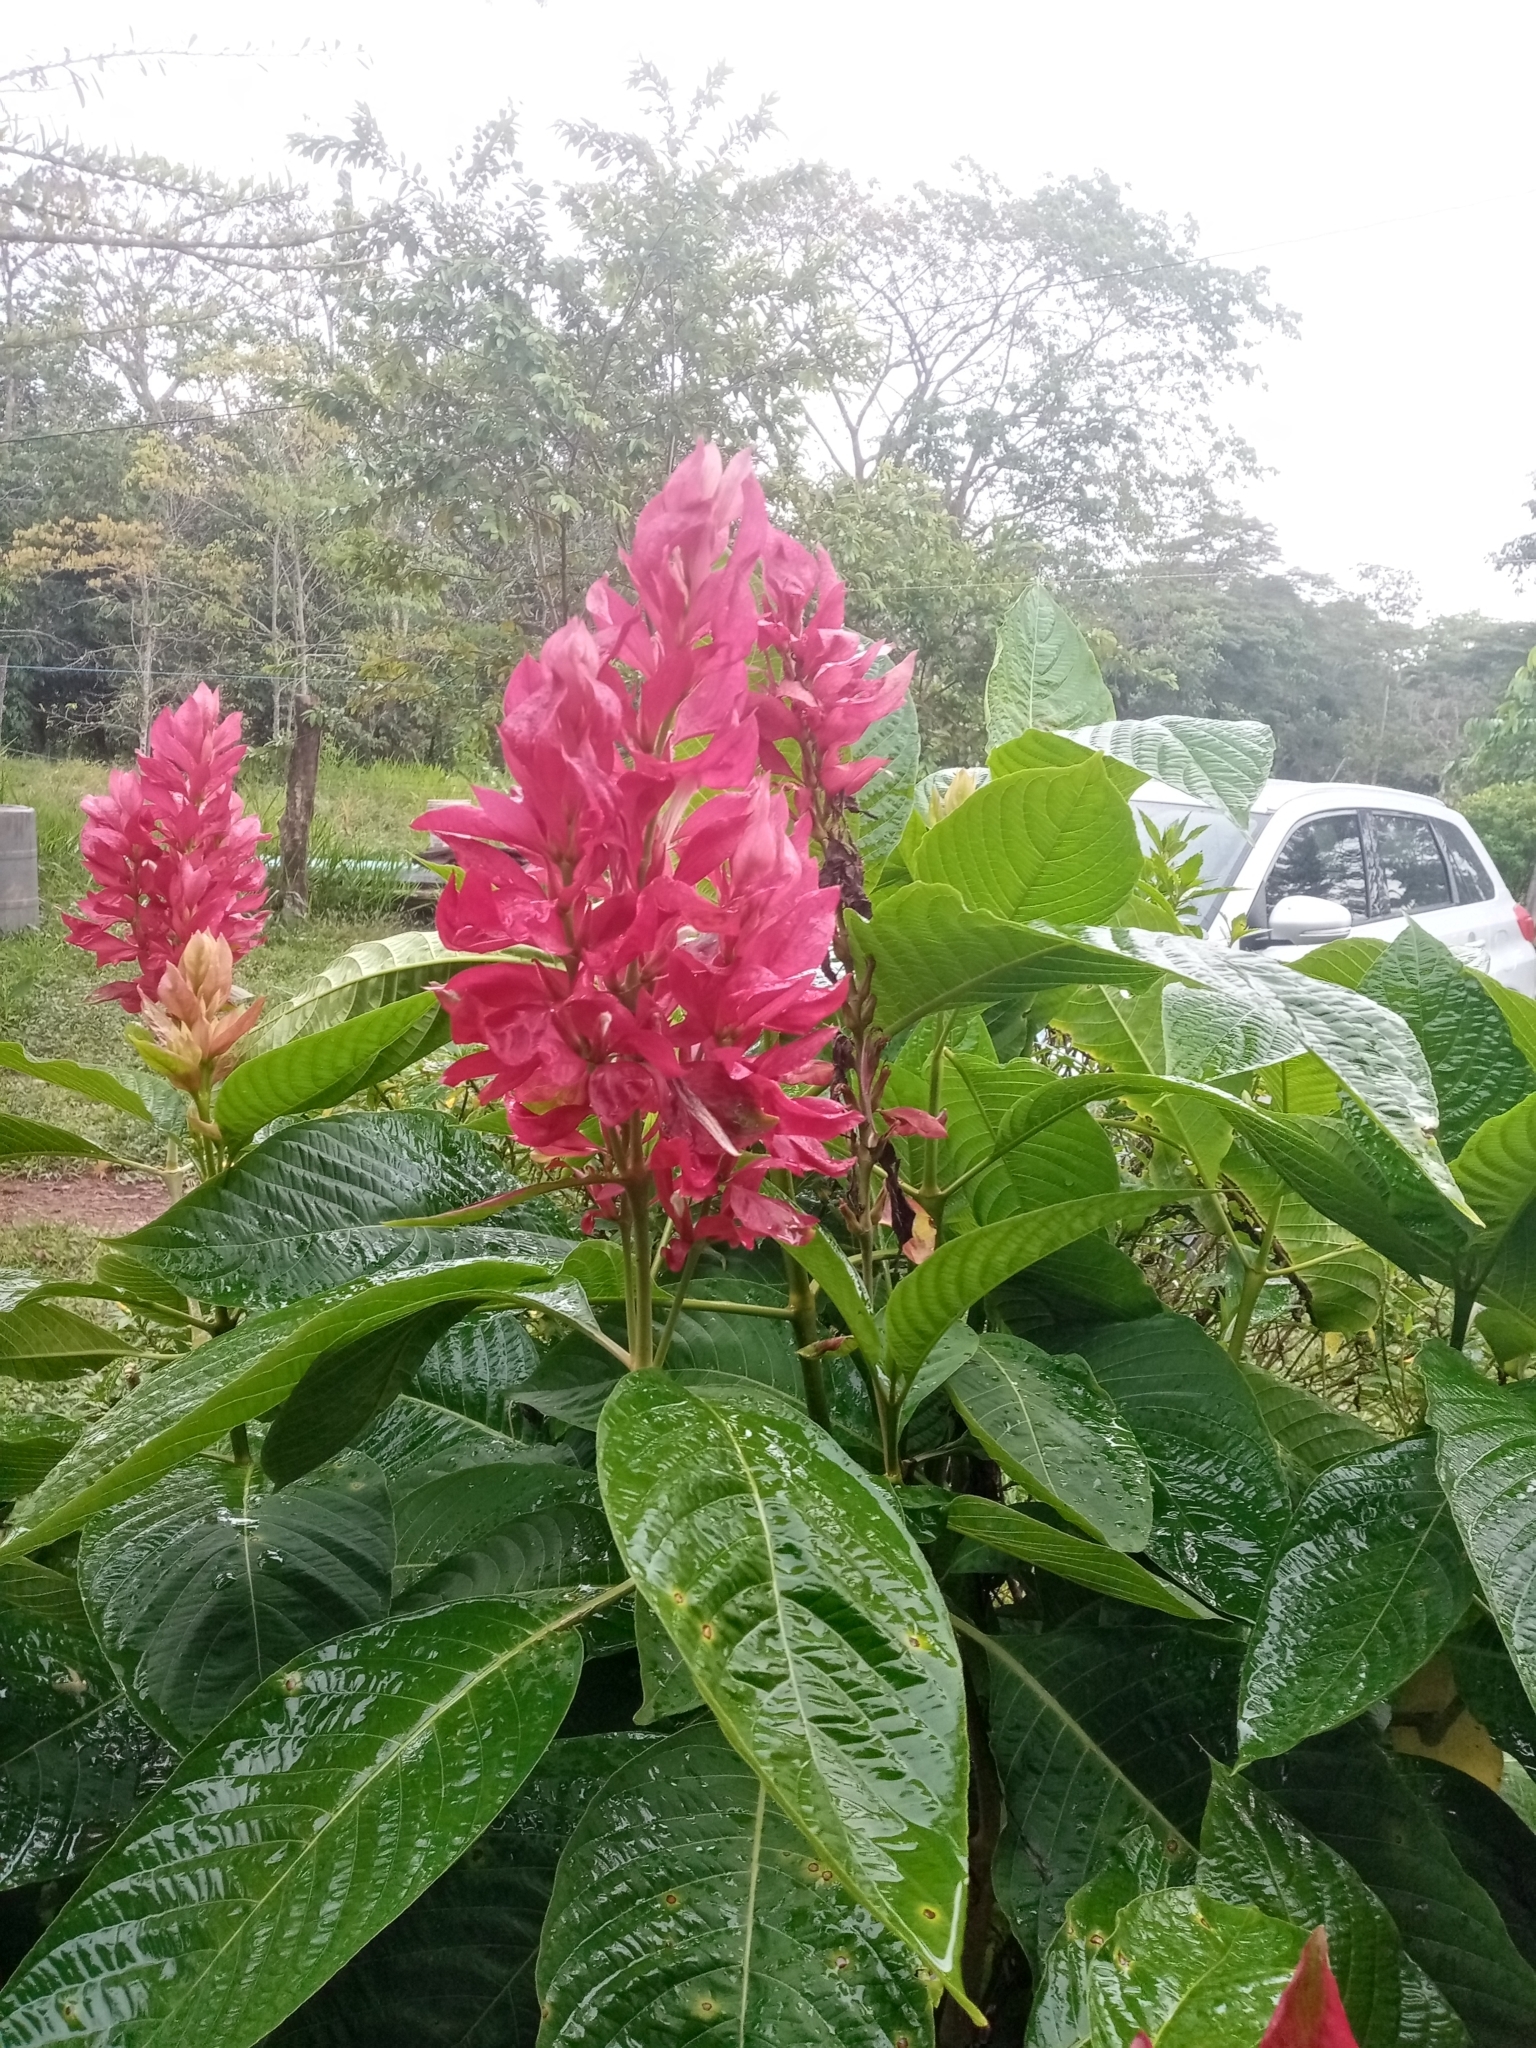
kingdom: Plantae
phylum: Tracheophyta
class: Magnoliopsida
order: Lamiales
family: Acanthaceae
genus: Megaskepasma
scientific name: Megaskepasma erythrochlamys
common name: Brazilian red-cloak
